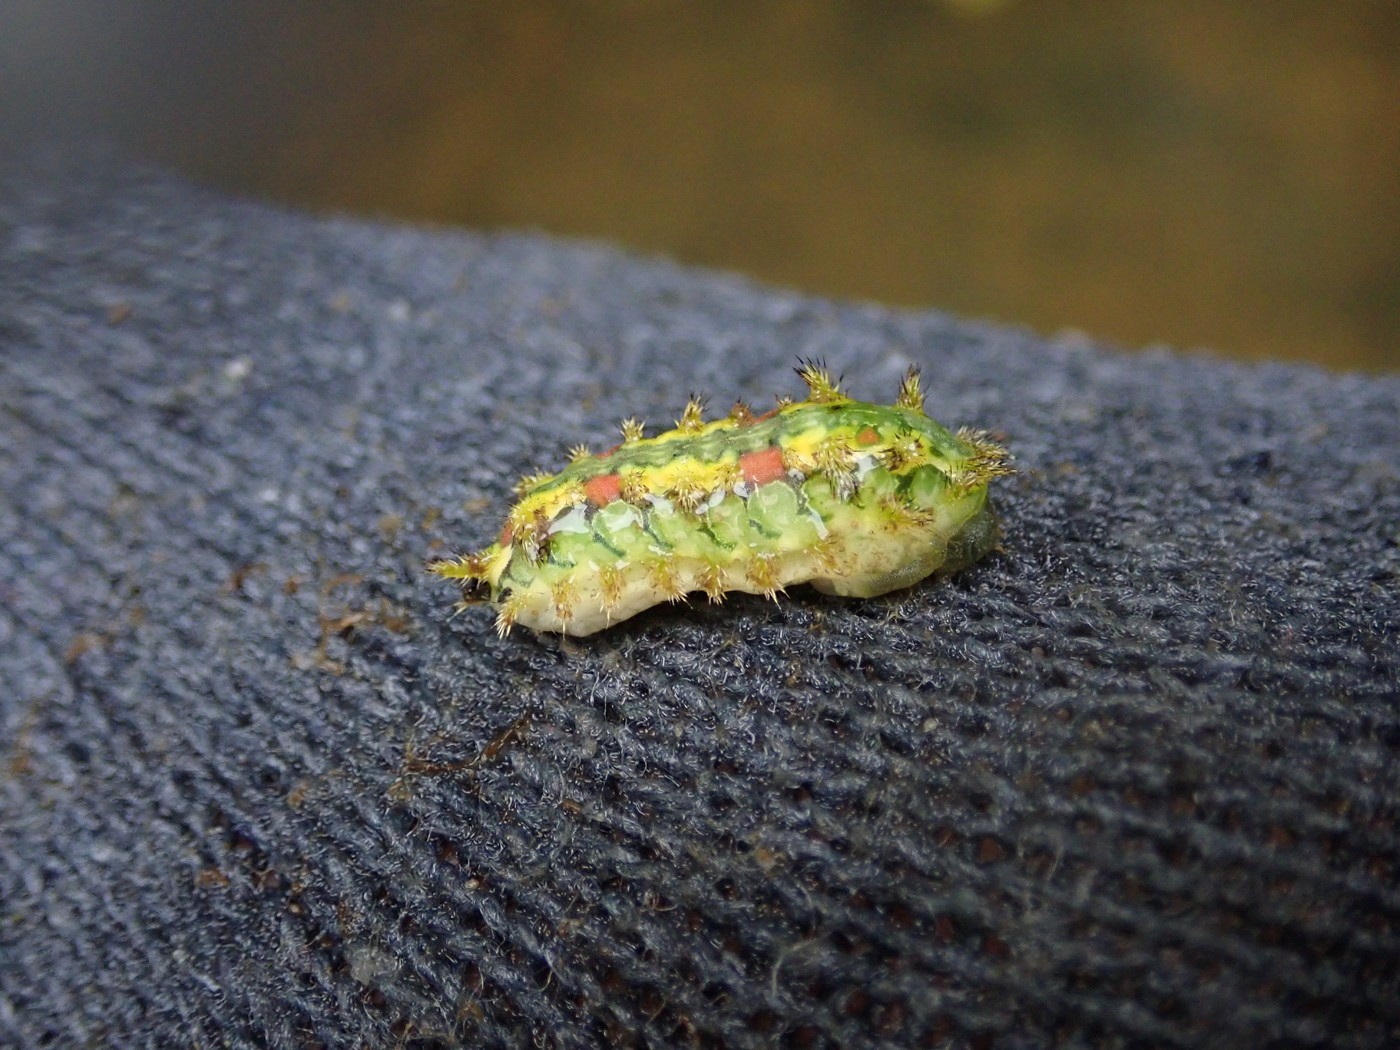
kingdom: Animalia
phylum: Arthropoda
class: Insecta
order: Lepidoptera
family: Limacodidae
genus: Euclea
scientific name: Euclea delphinii
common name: Spiny oak-slug moth
